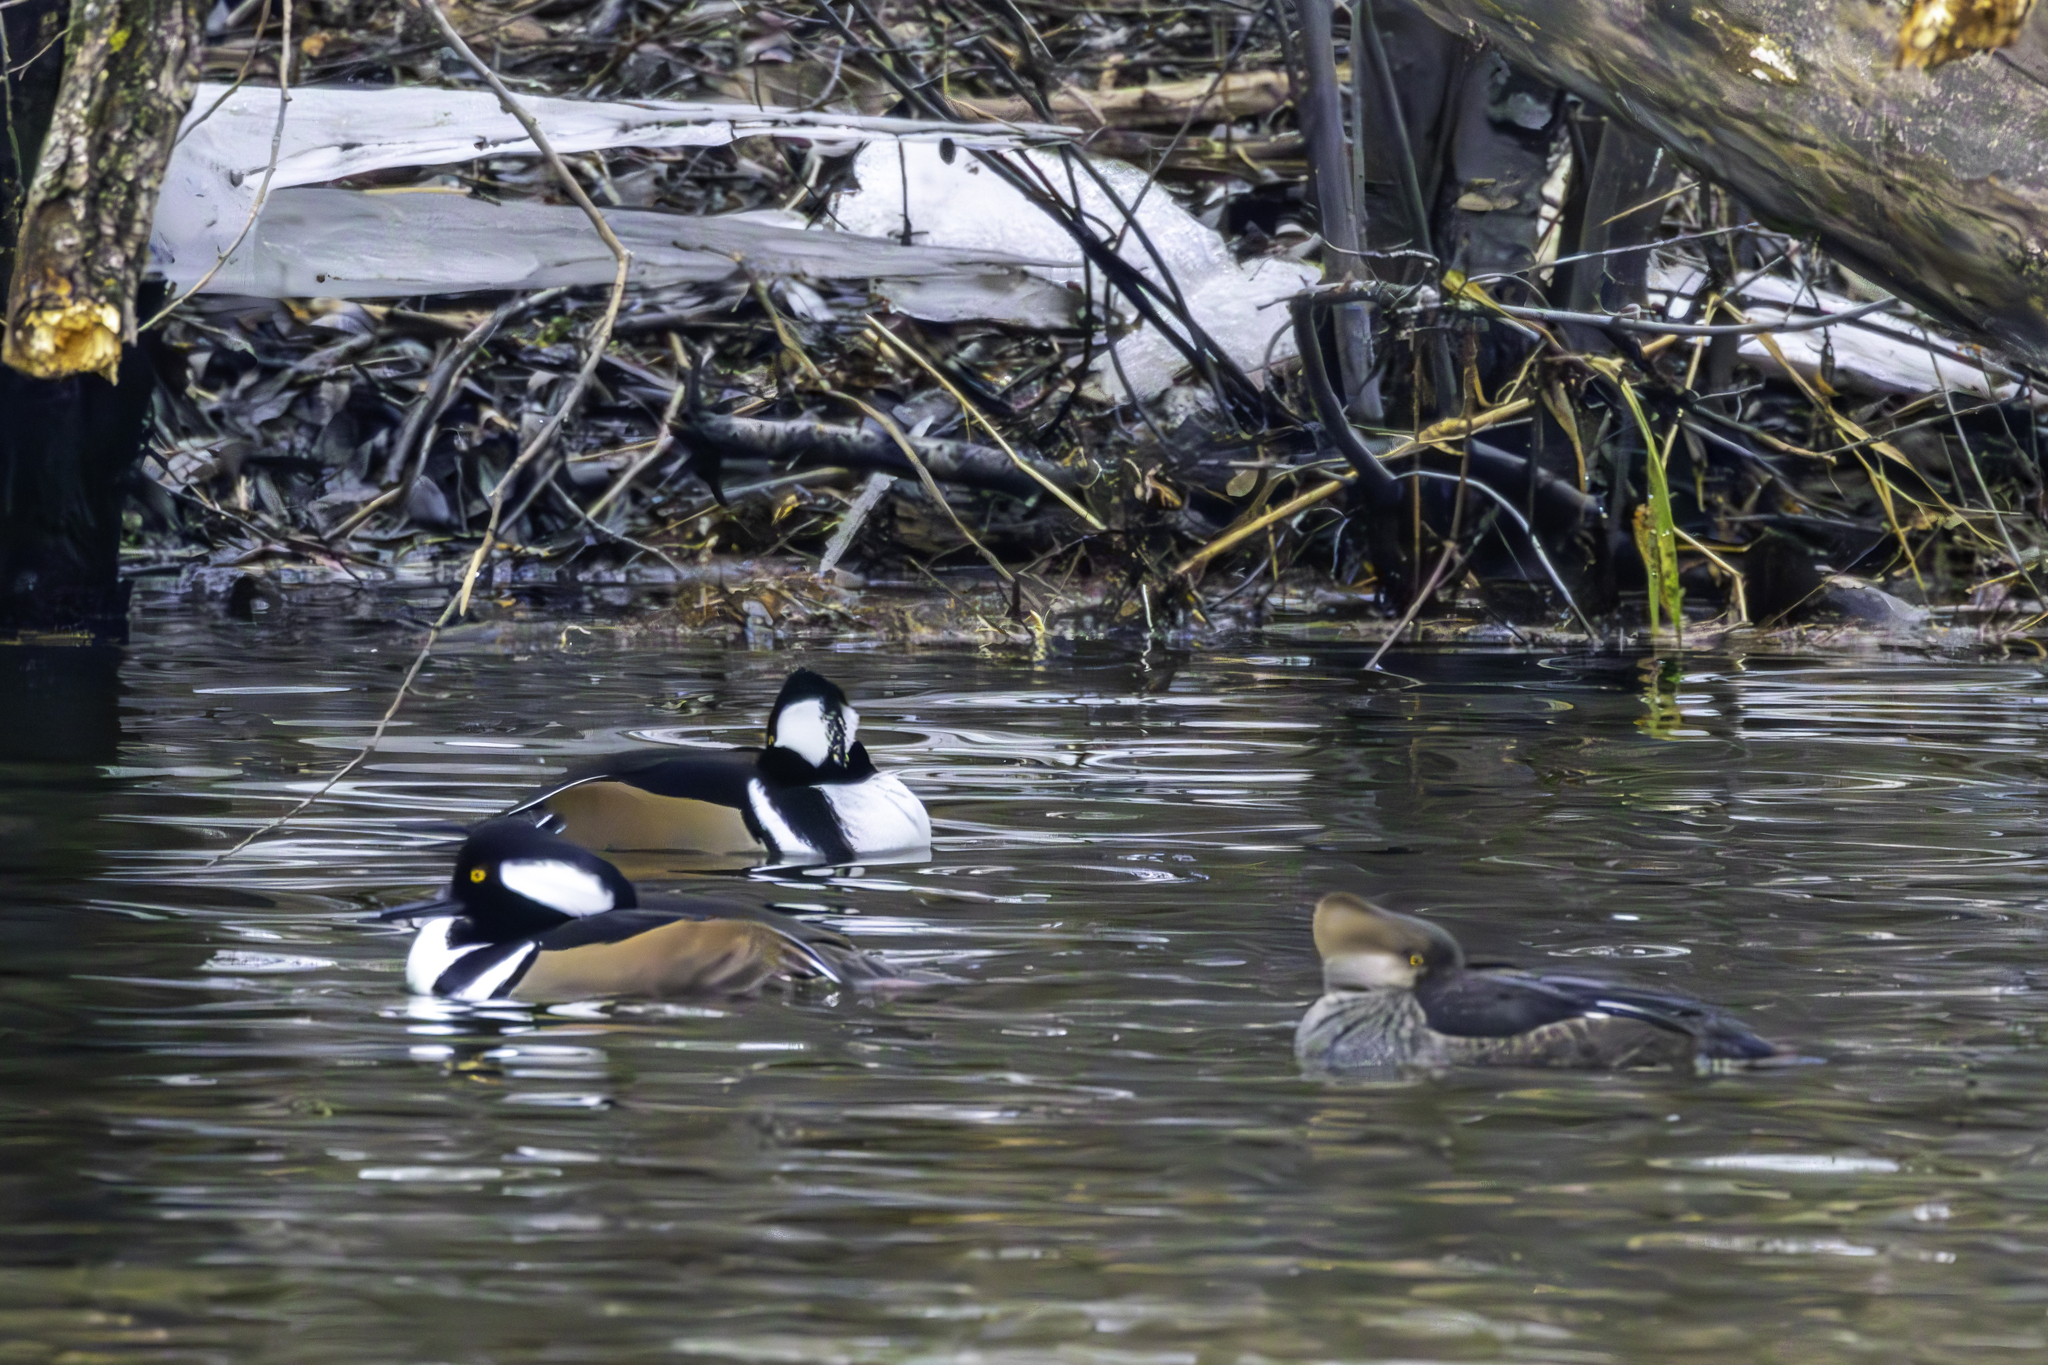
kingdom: Animalia
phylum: Chordata
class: Aves
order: Anseriformes
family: Anatidae
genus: Lophodytes
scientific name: Lophodytes cucullatus
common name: Hooded merganser
